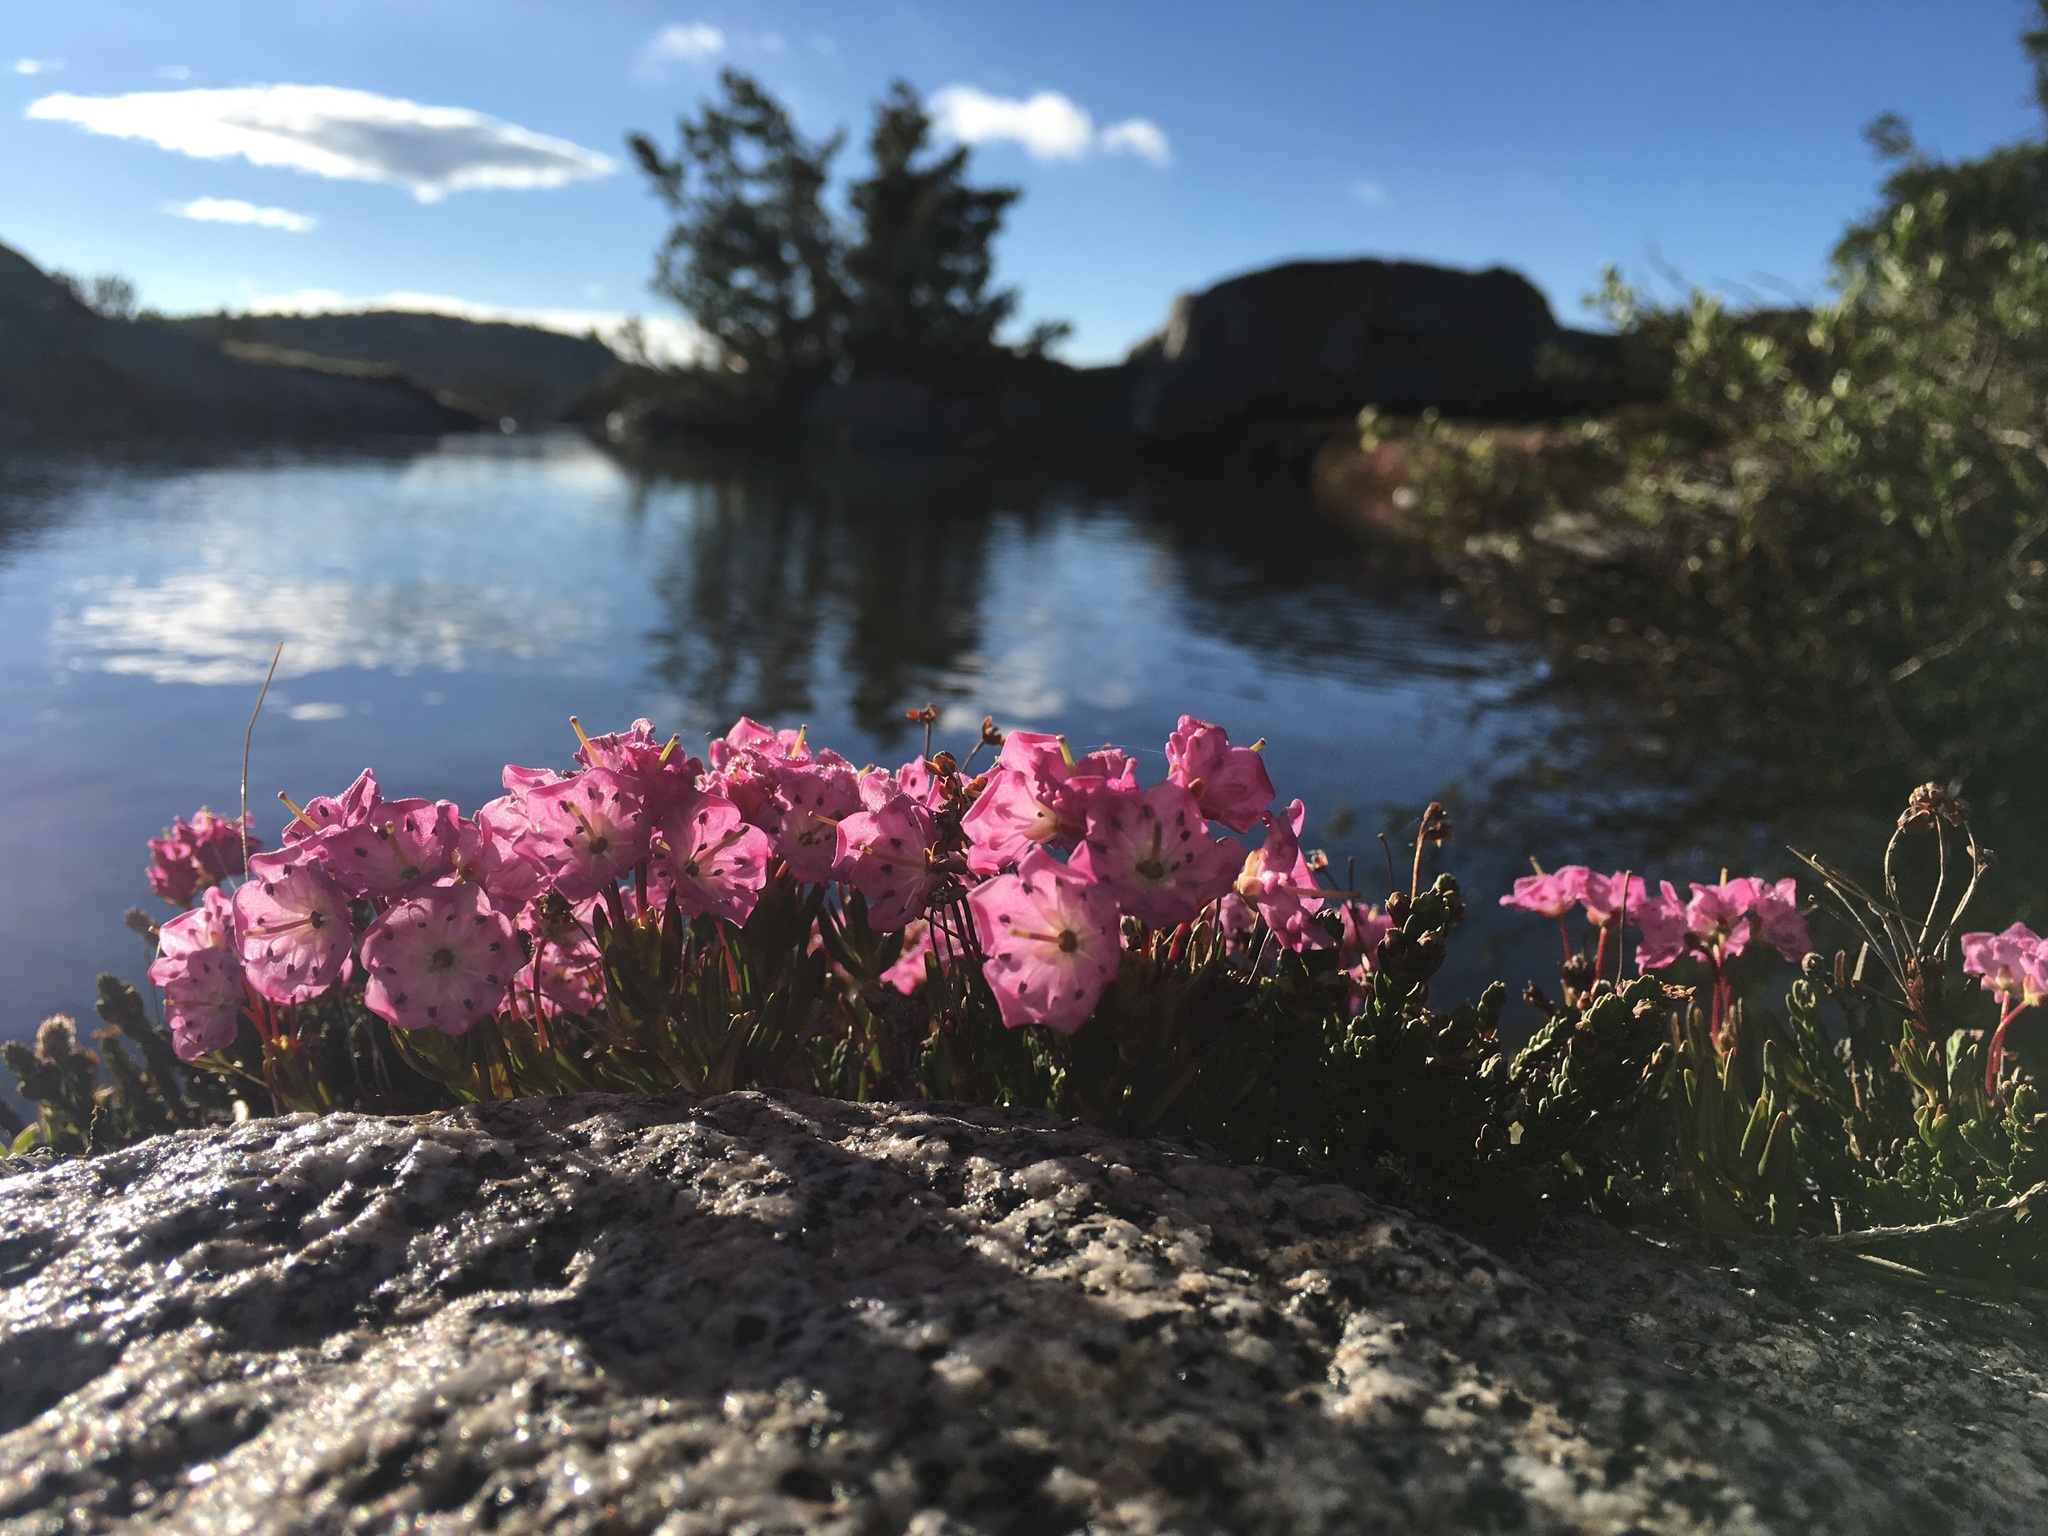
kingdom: Plantae
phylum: Tracheophyta
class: Magnoliopsida
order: Ericales
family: Ericaceae
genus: Kalmia
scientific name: Kalmia microphylla
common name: Alpine bog laurel
